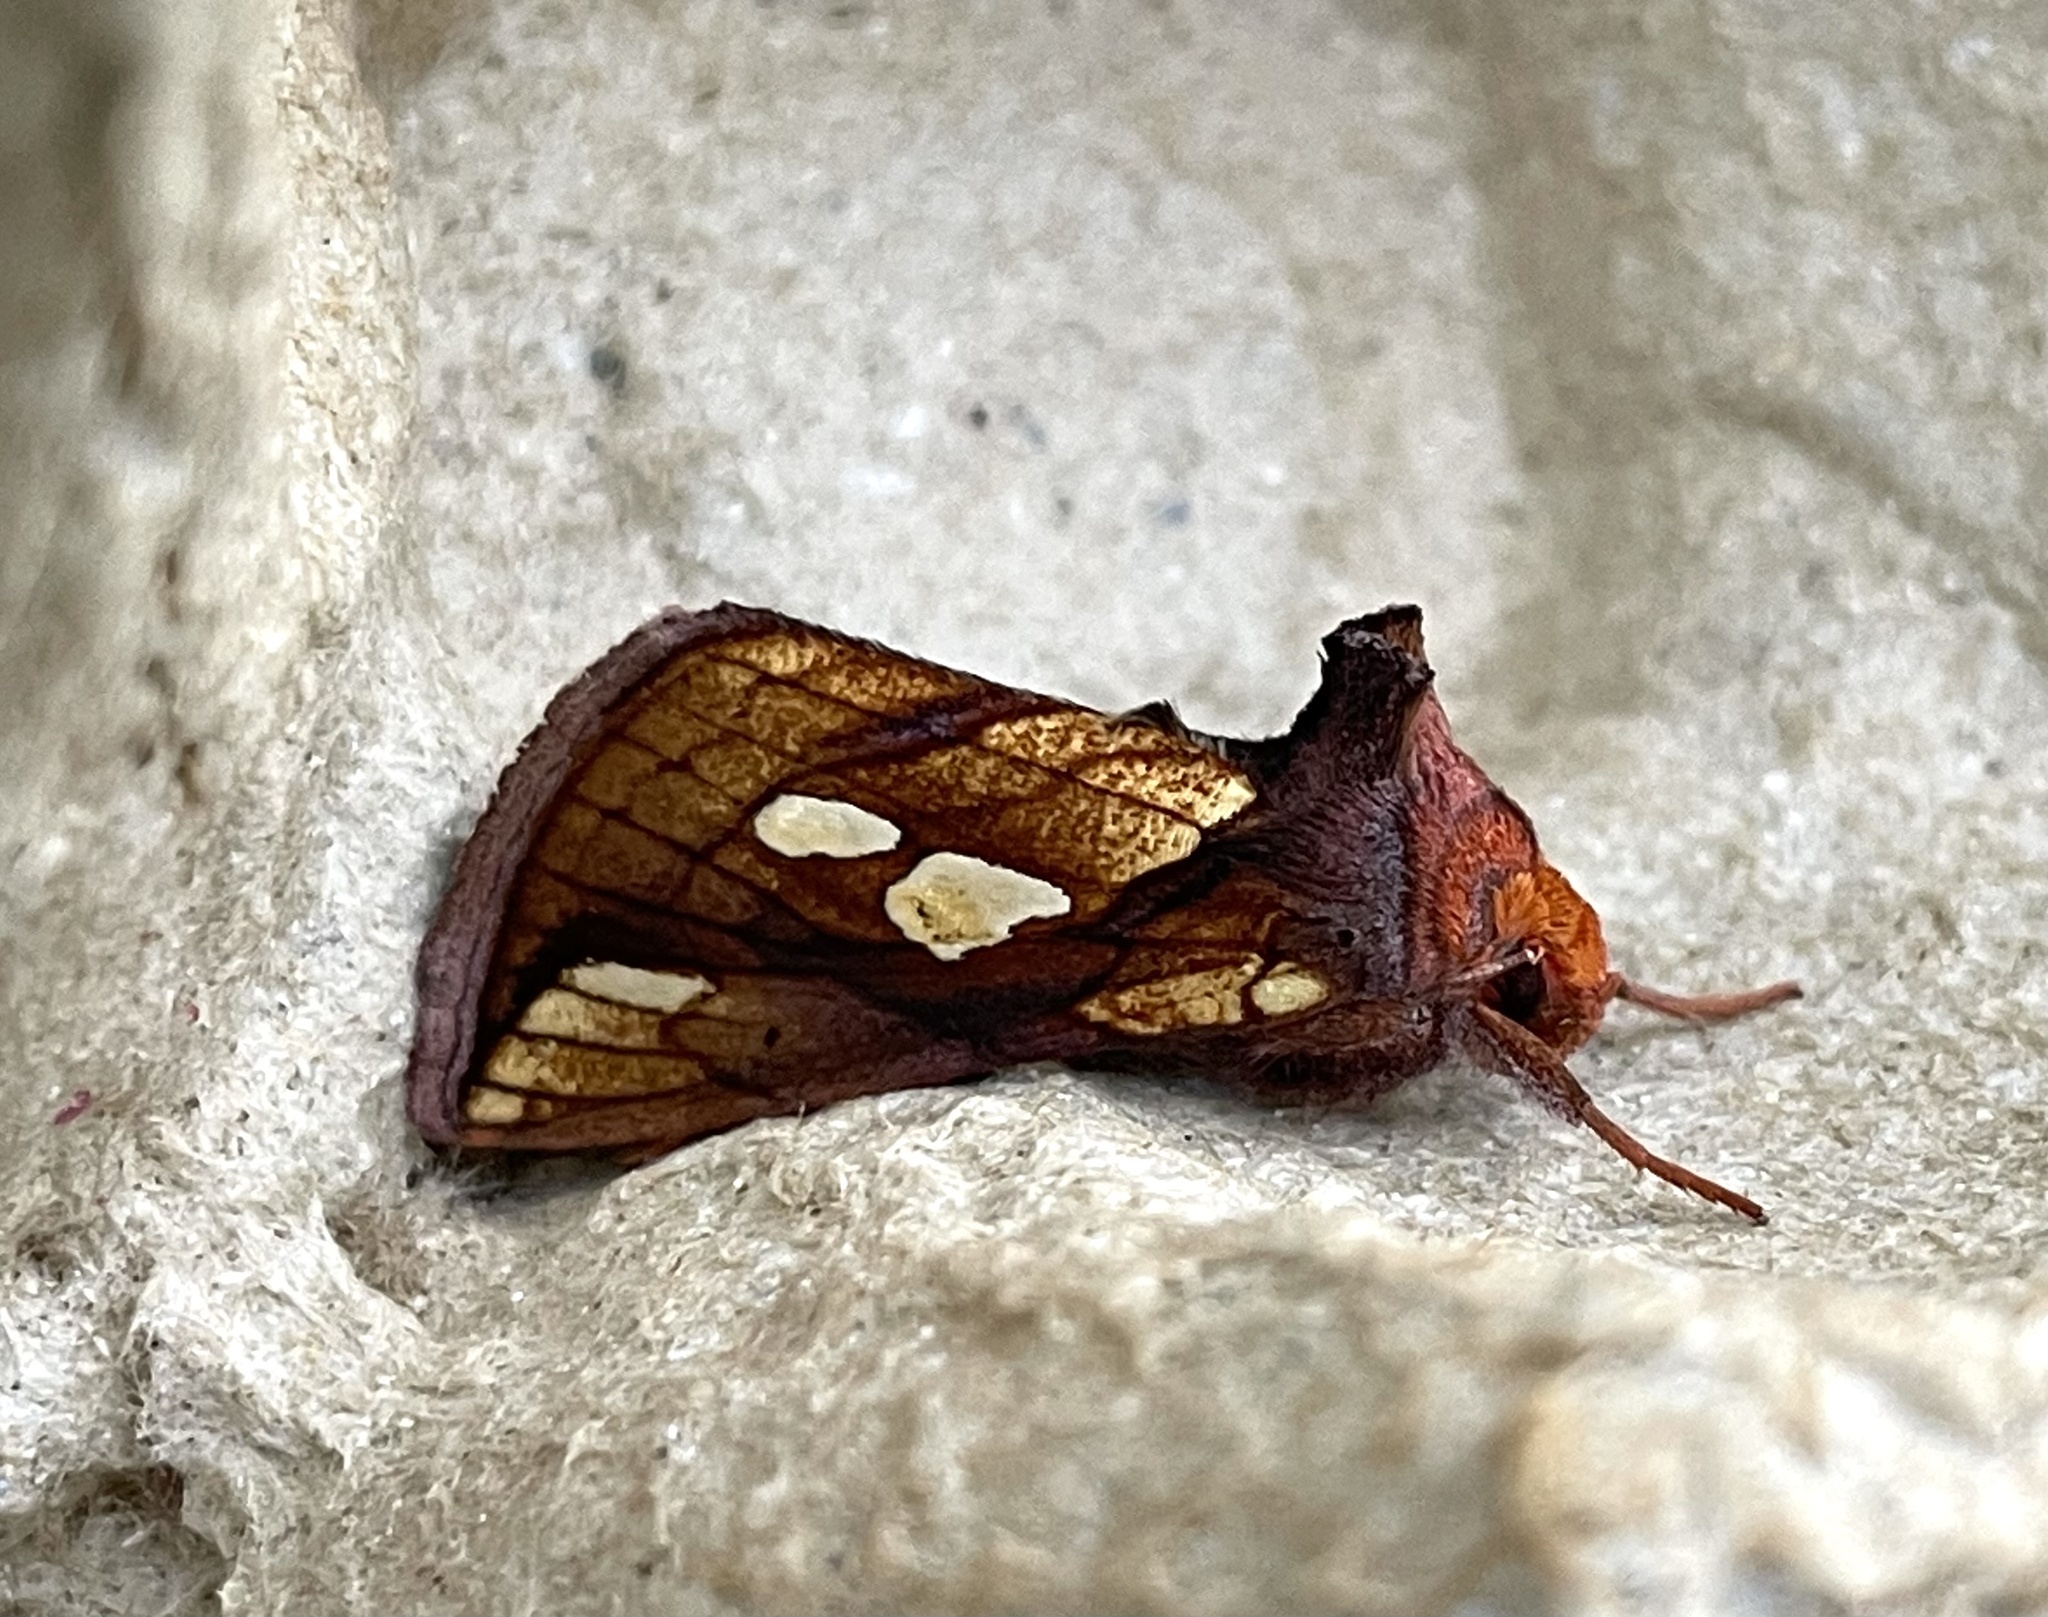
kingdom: Animalia
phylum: Arthropoda
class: Insecta
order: Lepidoptera
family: Noctuidae
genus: Plusia
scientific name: Plusia festucae
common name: Gold spot
